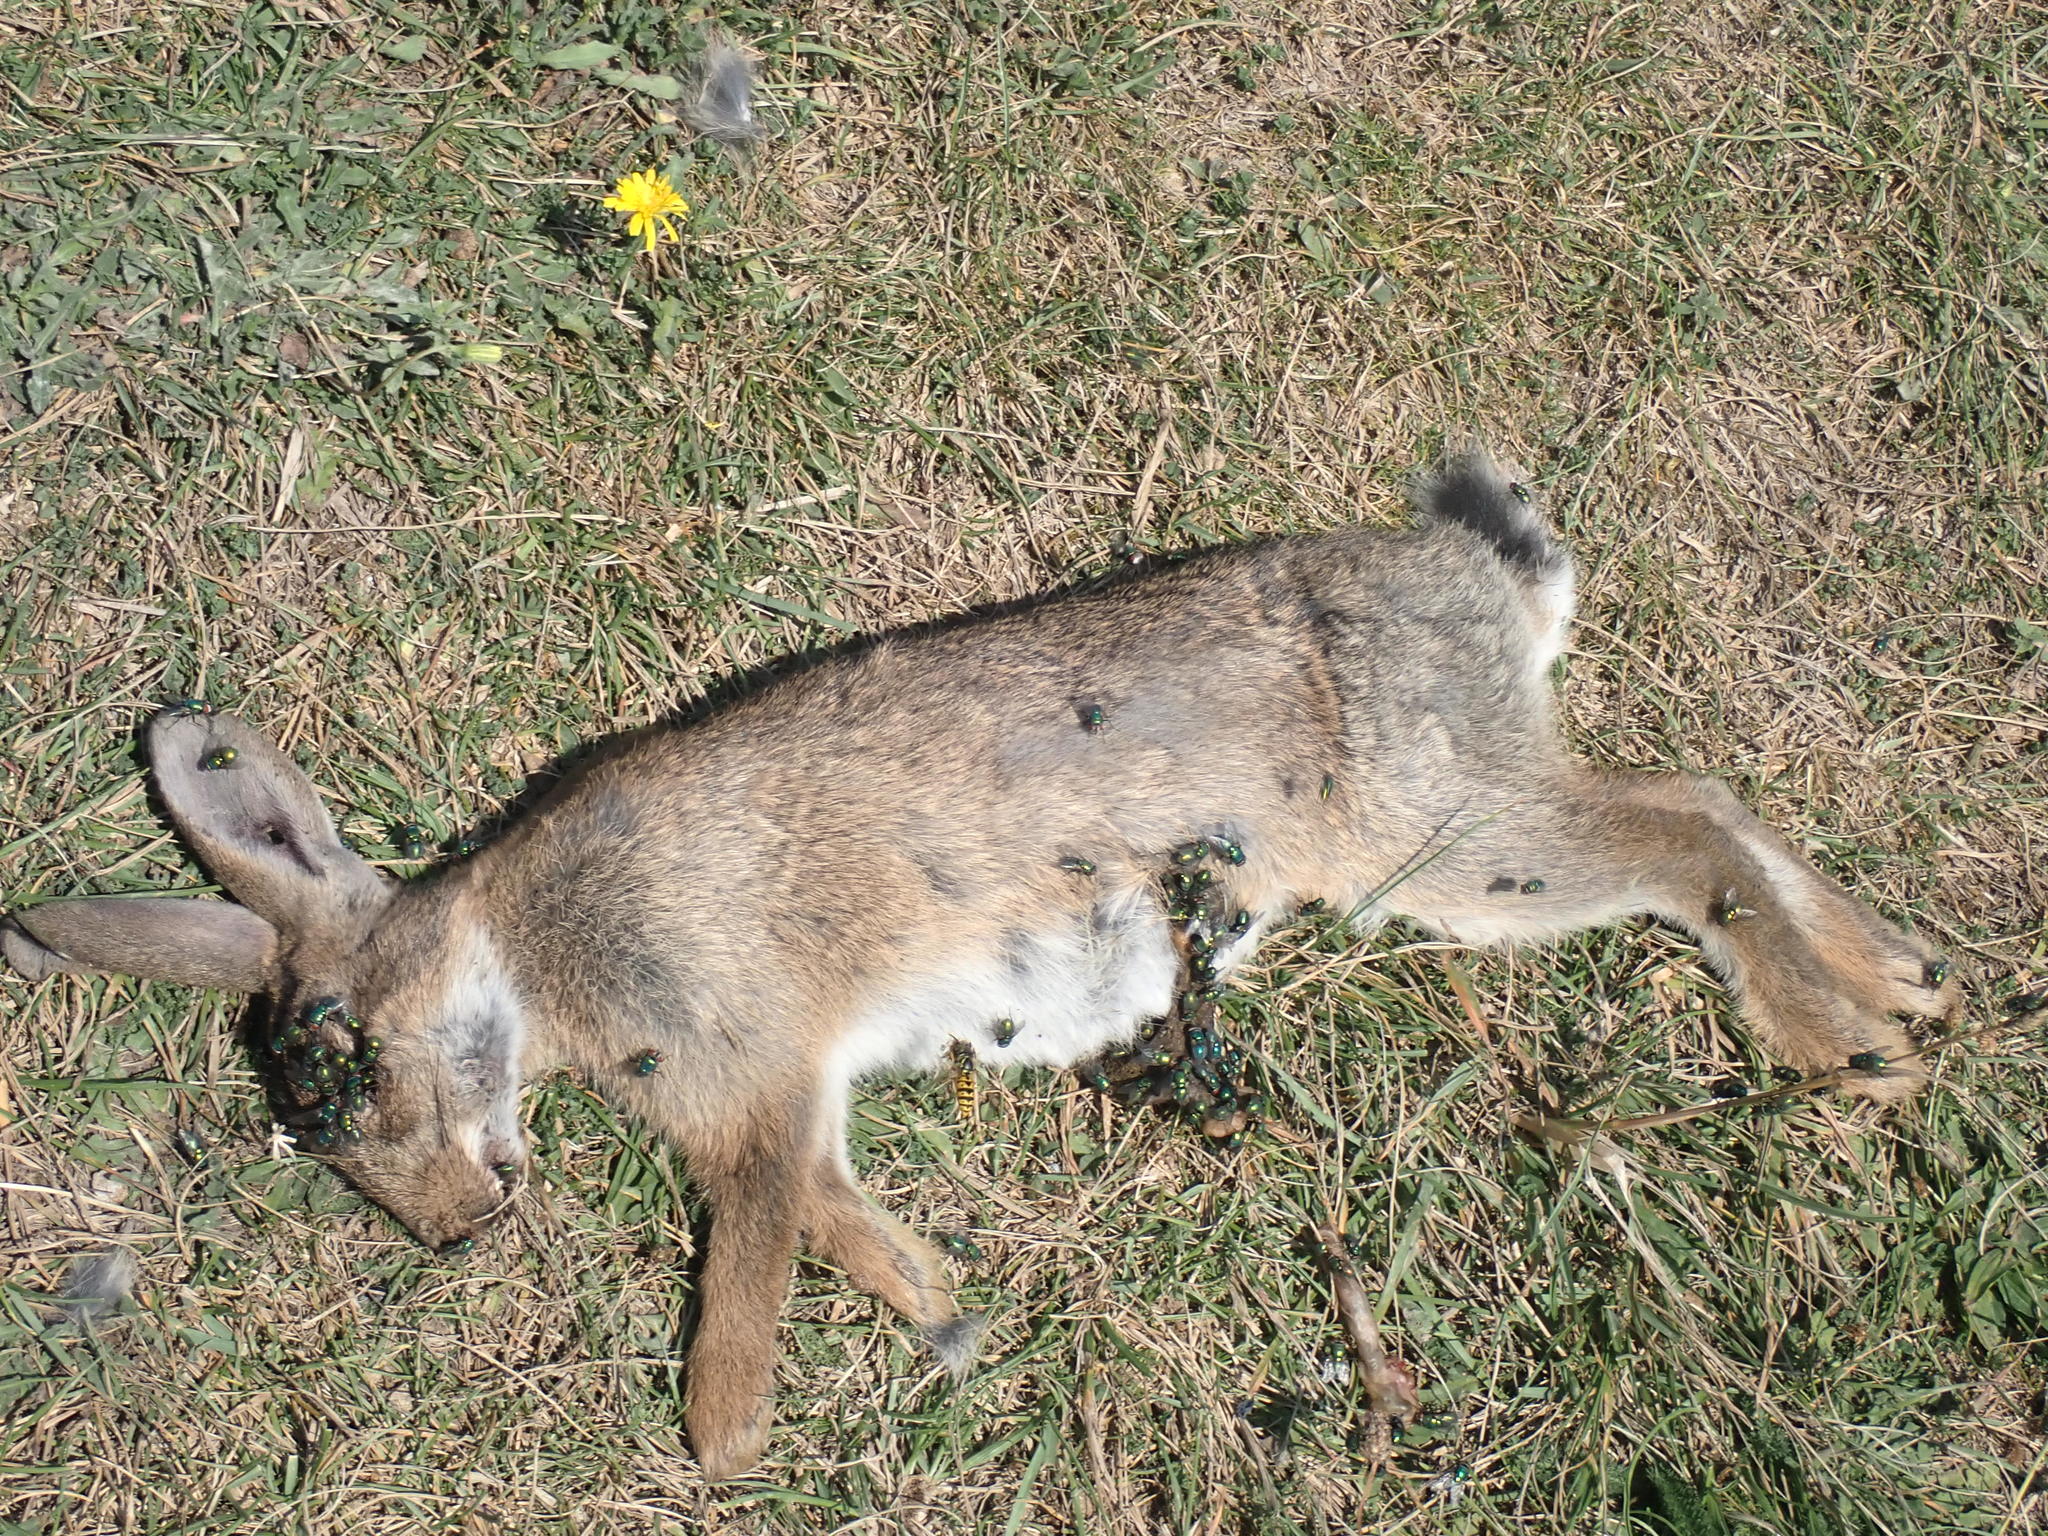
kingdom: Animalia
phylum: Chordata
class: Mammalia
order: Lagomorpha
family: Leporidae
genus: Oryctolagus
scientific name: Oryctolagus cuniculus
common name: European rabbit
